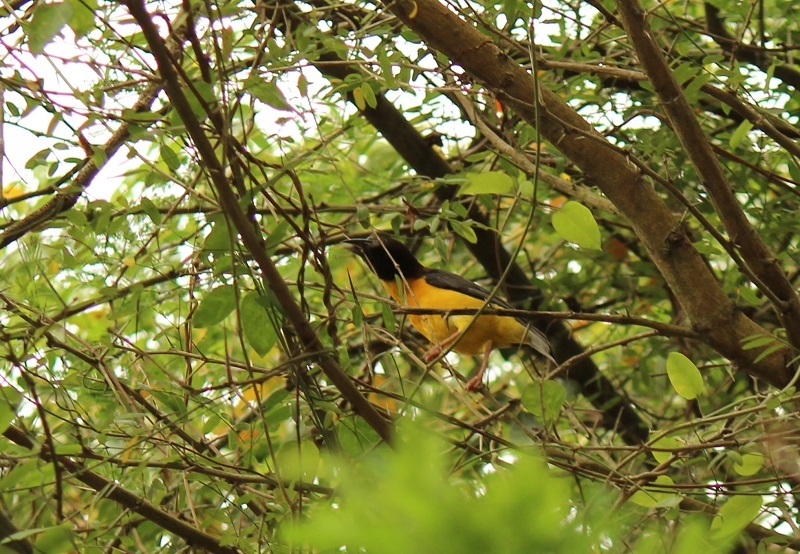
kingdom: Animalia
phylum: Chordata
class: Aves
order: Passeriformes
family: Ploceidae
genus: Ploceus
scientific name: Ploceus bicolor
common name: Dark-backed weaver
